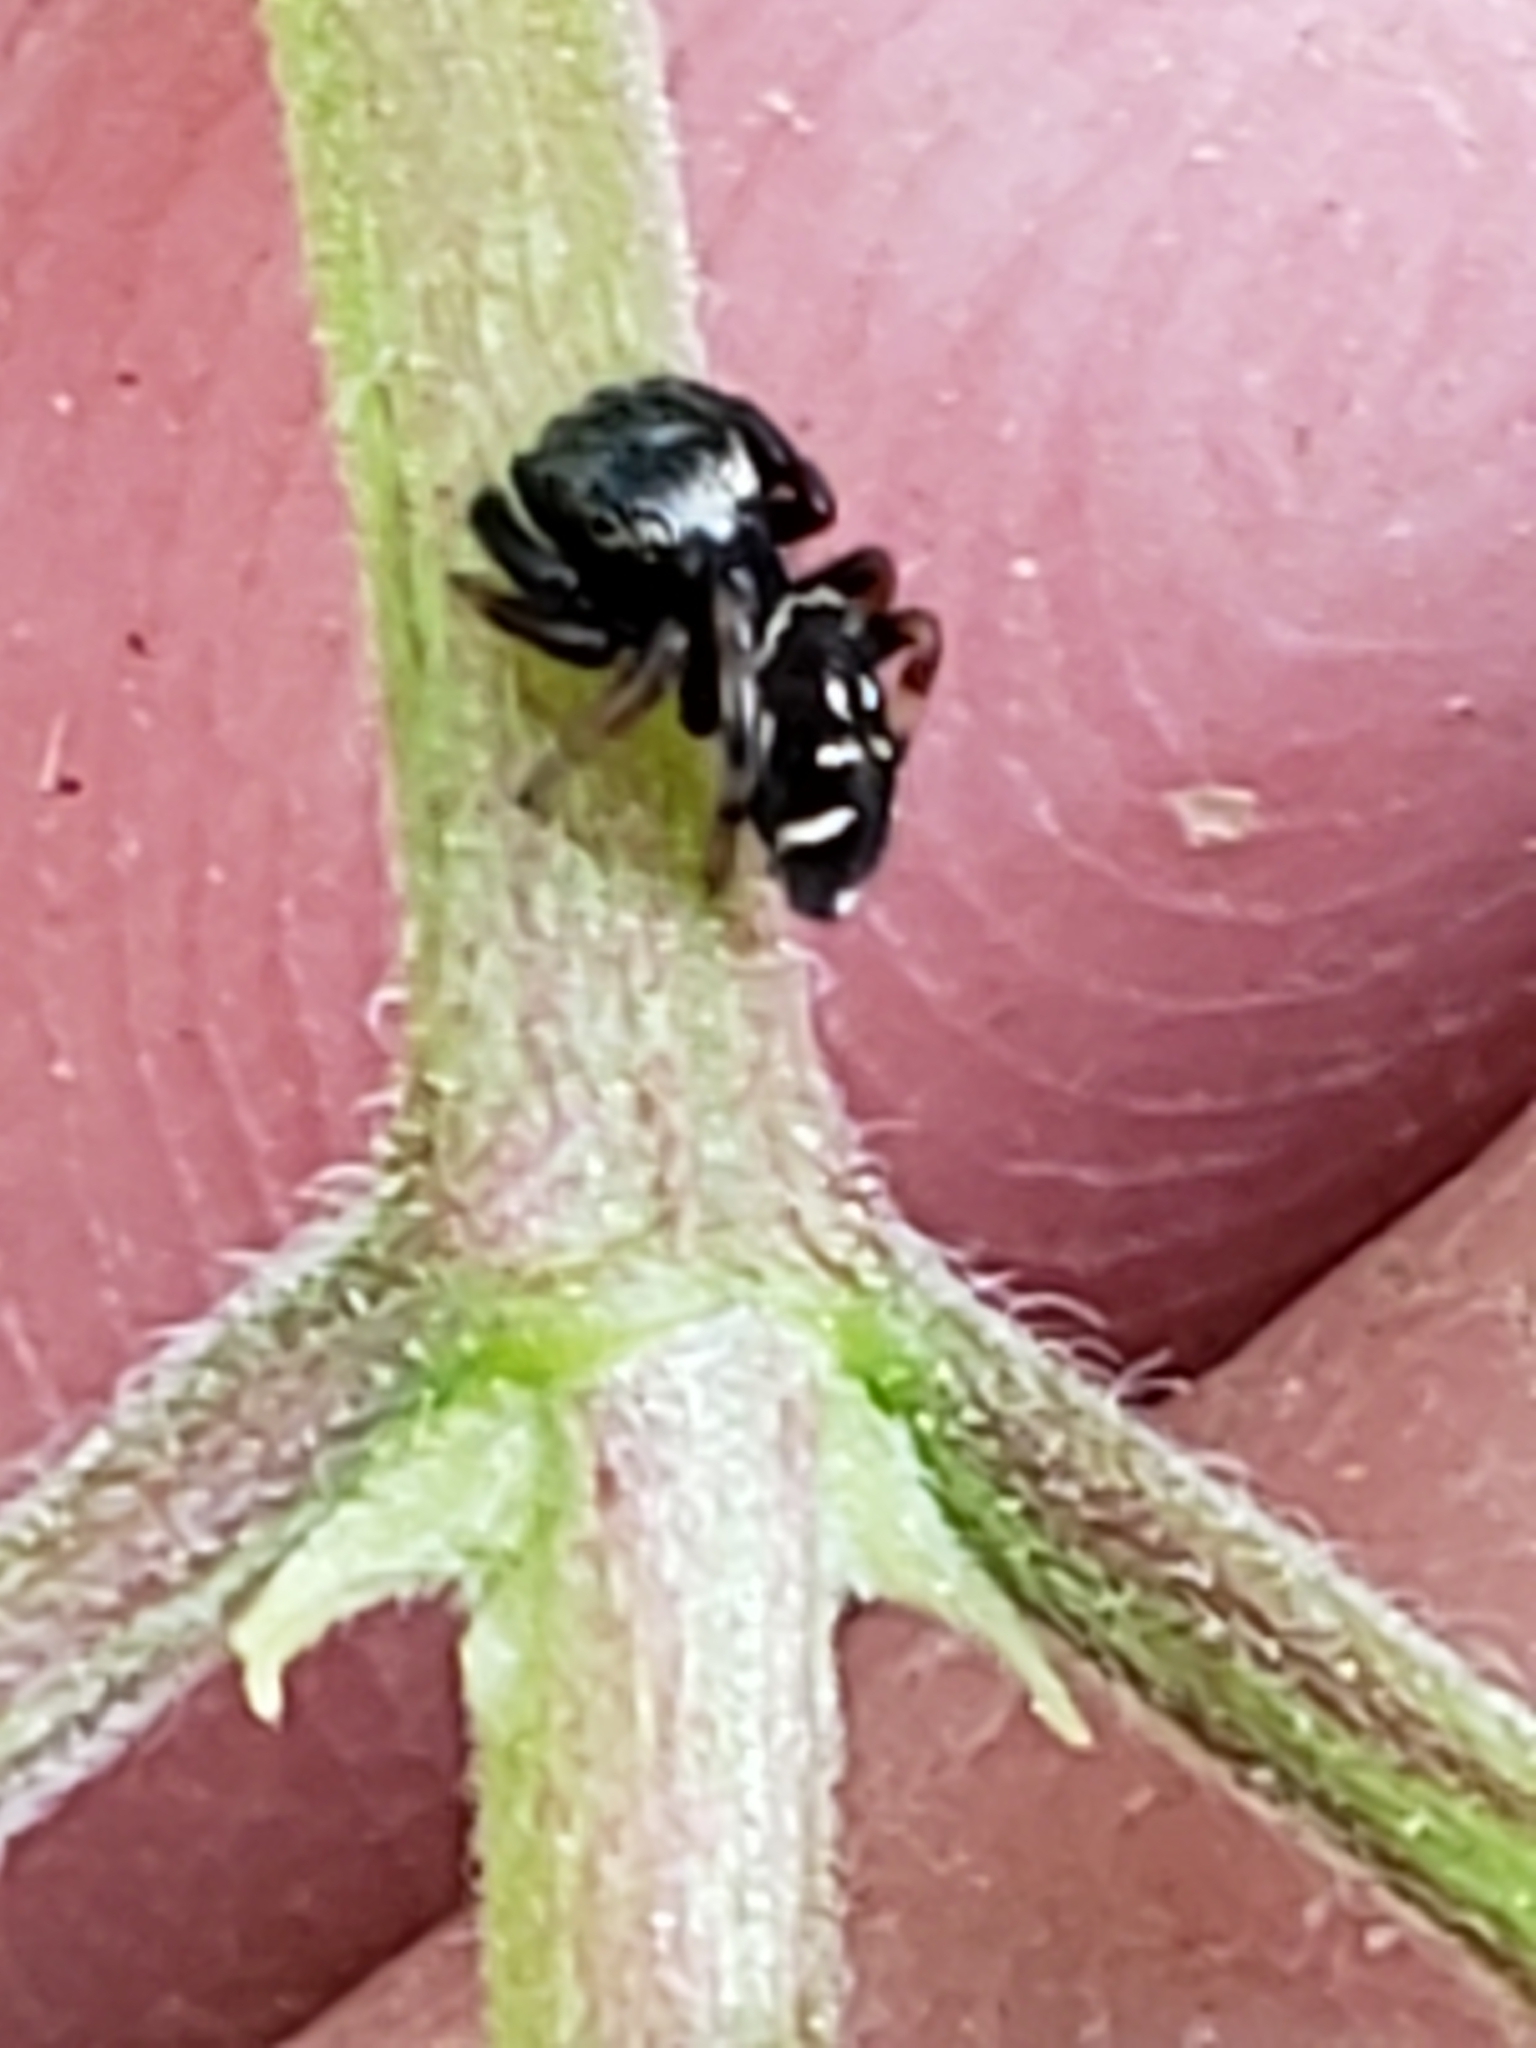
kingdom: Animalia
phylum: Arthropoda
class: Arachnida
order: Araneae
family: Salticidae
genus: Paraphidippus
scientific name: Paraphidippus aurantius
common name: Jumping spiders
